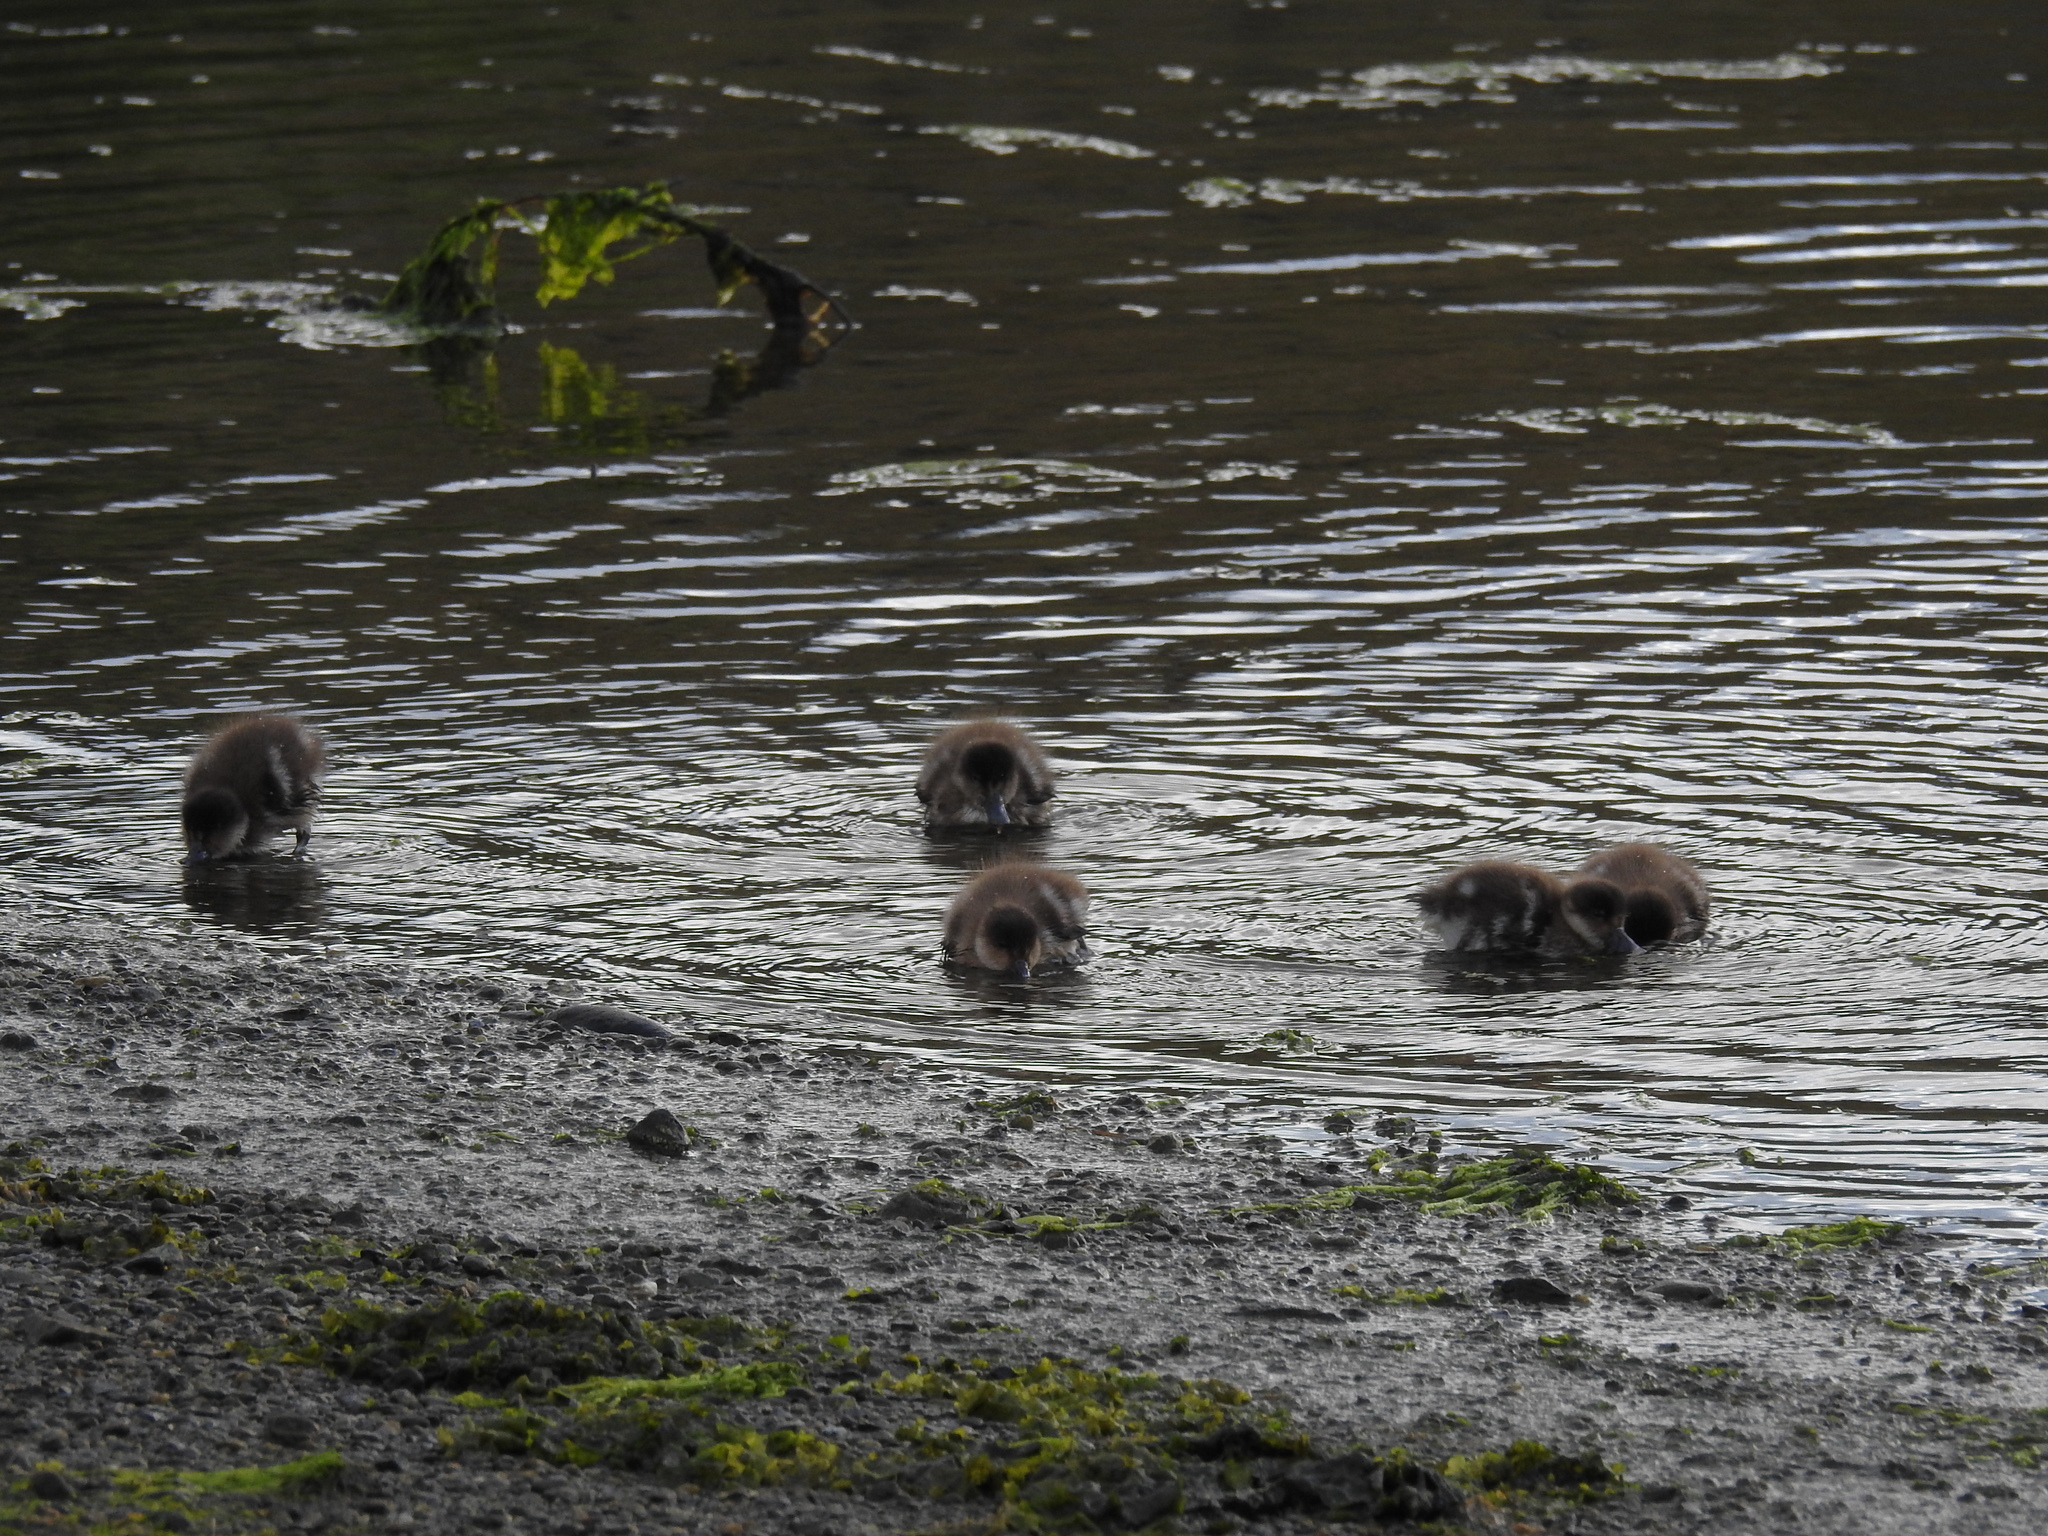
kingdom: Animalia
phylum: Chordata
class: Aves
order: Anseriformes
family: Anatidae
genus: Lophonetta
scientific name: Lophonetta specularioides
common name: Crested duck
